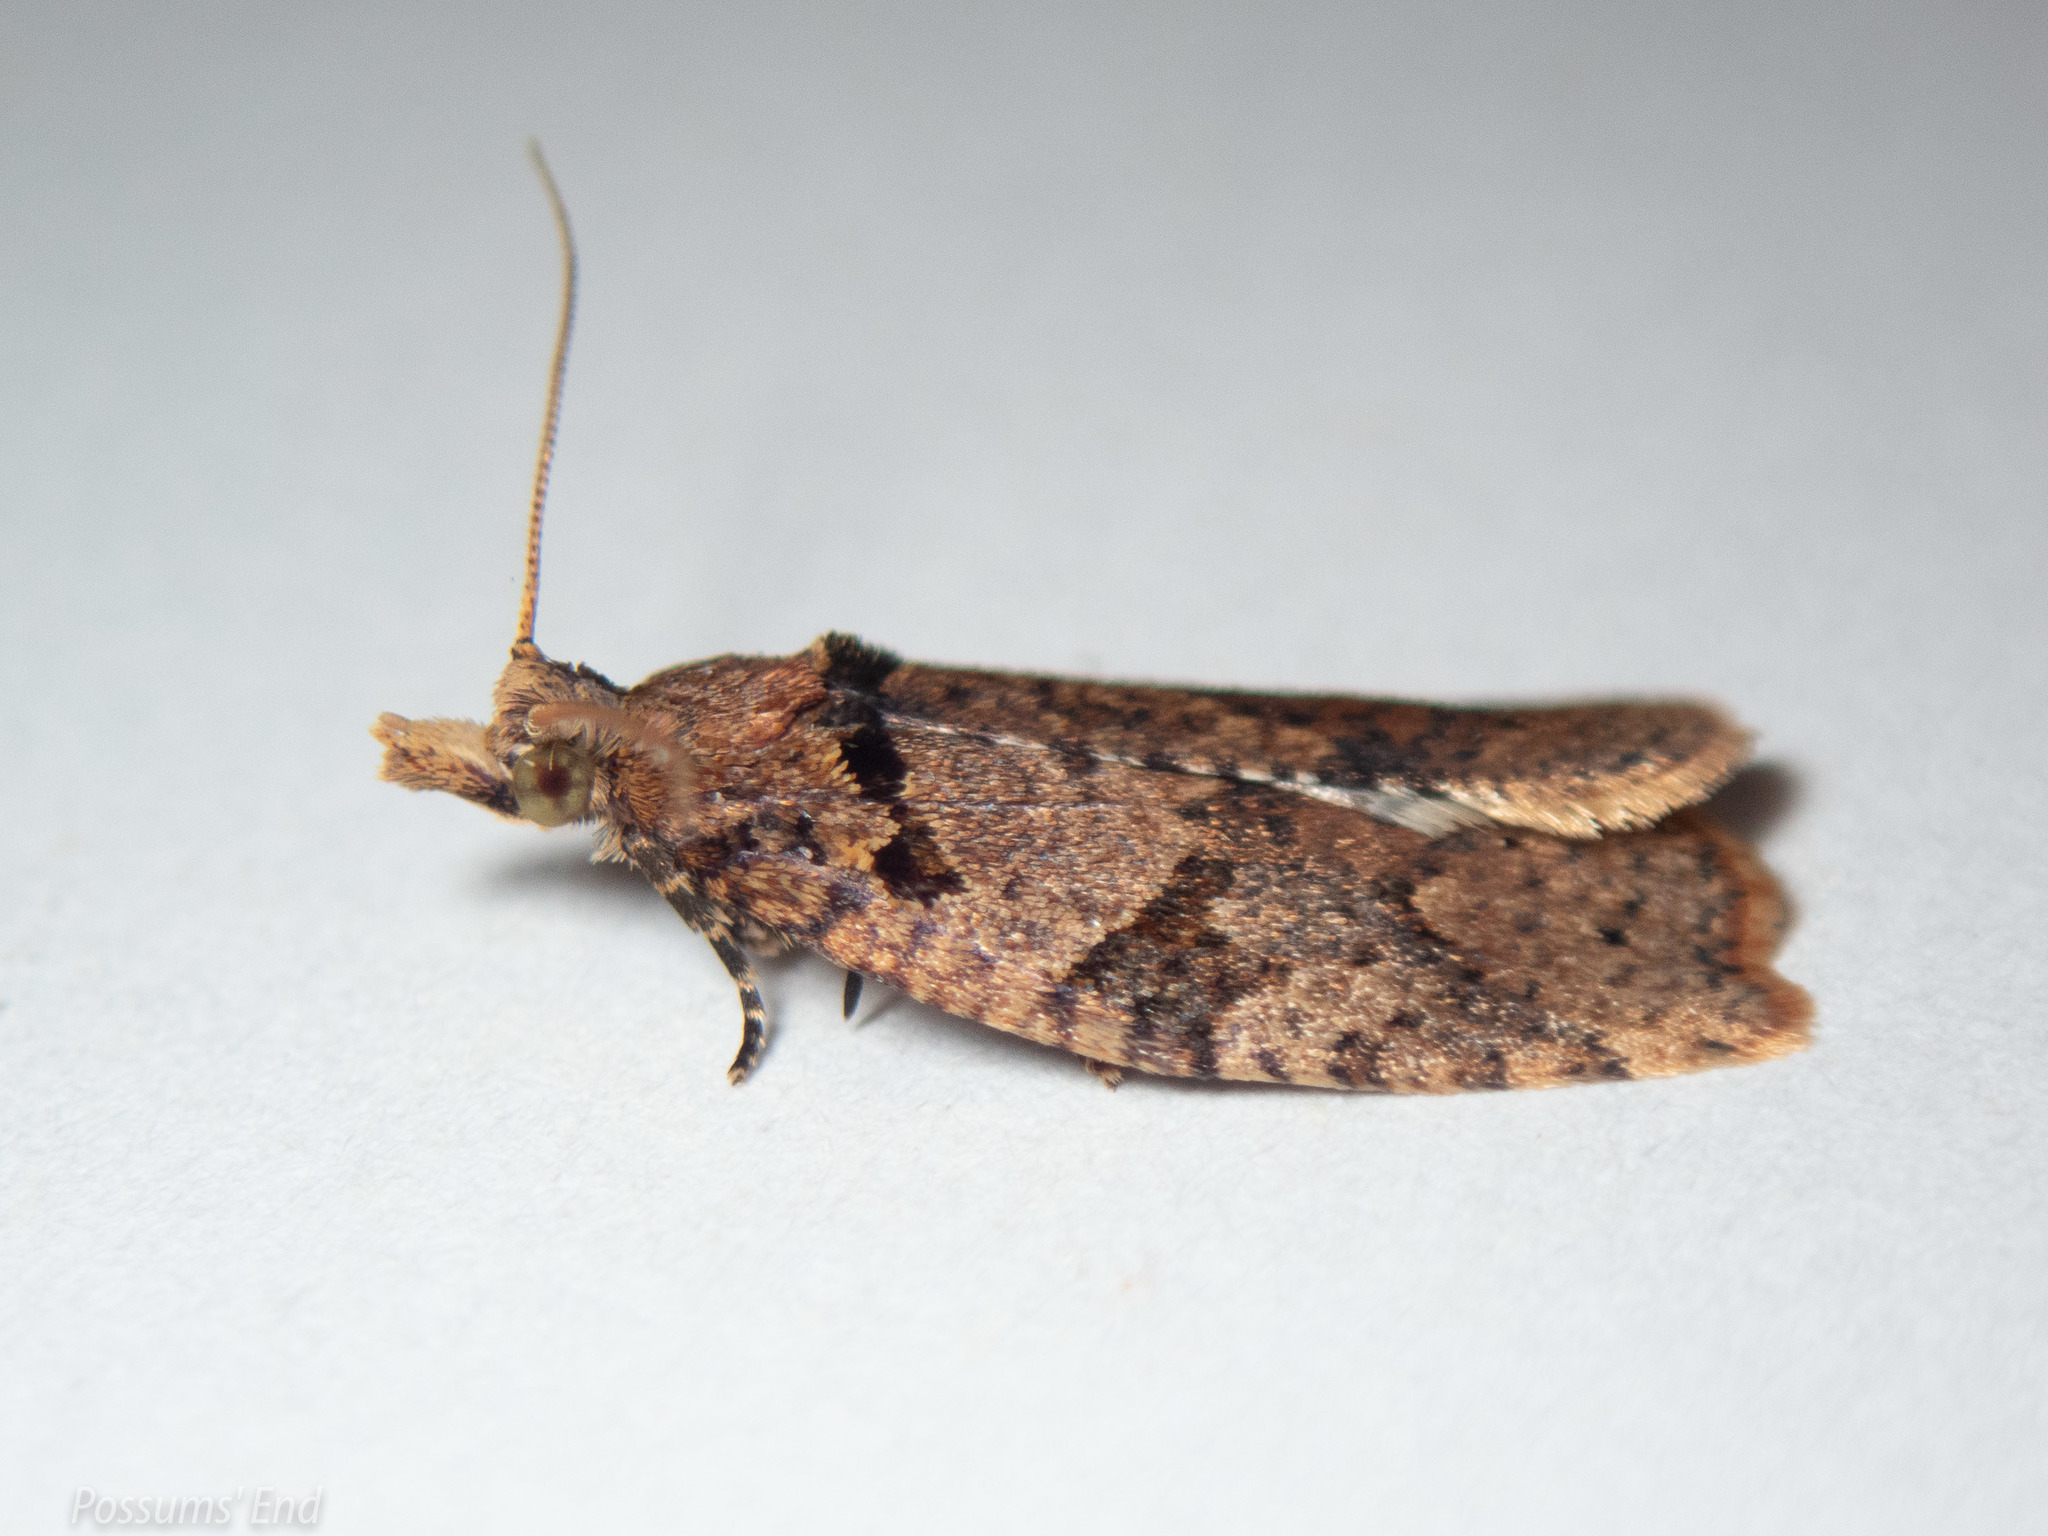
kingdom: Animalia
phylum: Arthropoda
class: Insecta
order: Lepidoptera
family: Tortricidae
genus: Ctenopseustis
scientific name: Ctenopseustis obliquana
